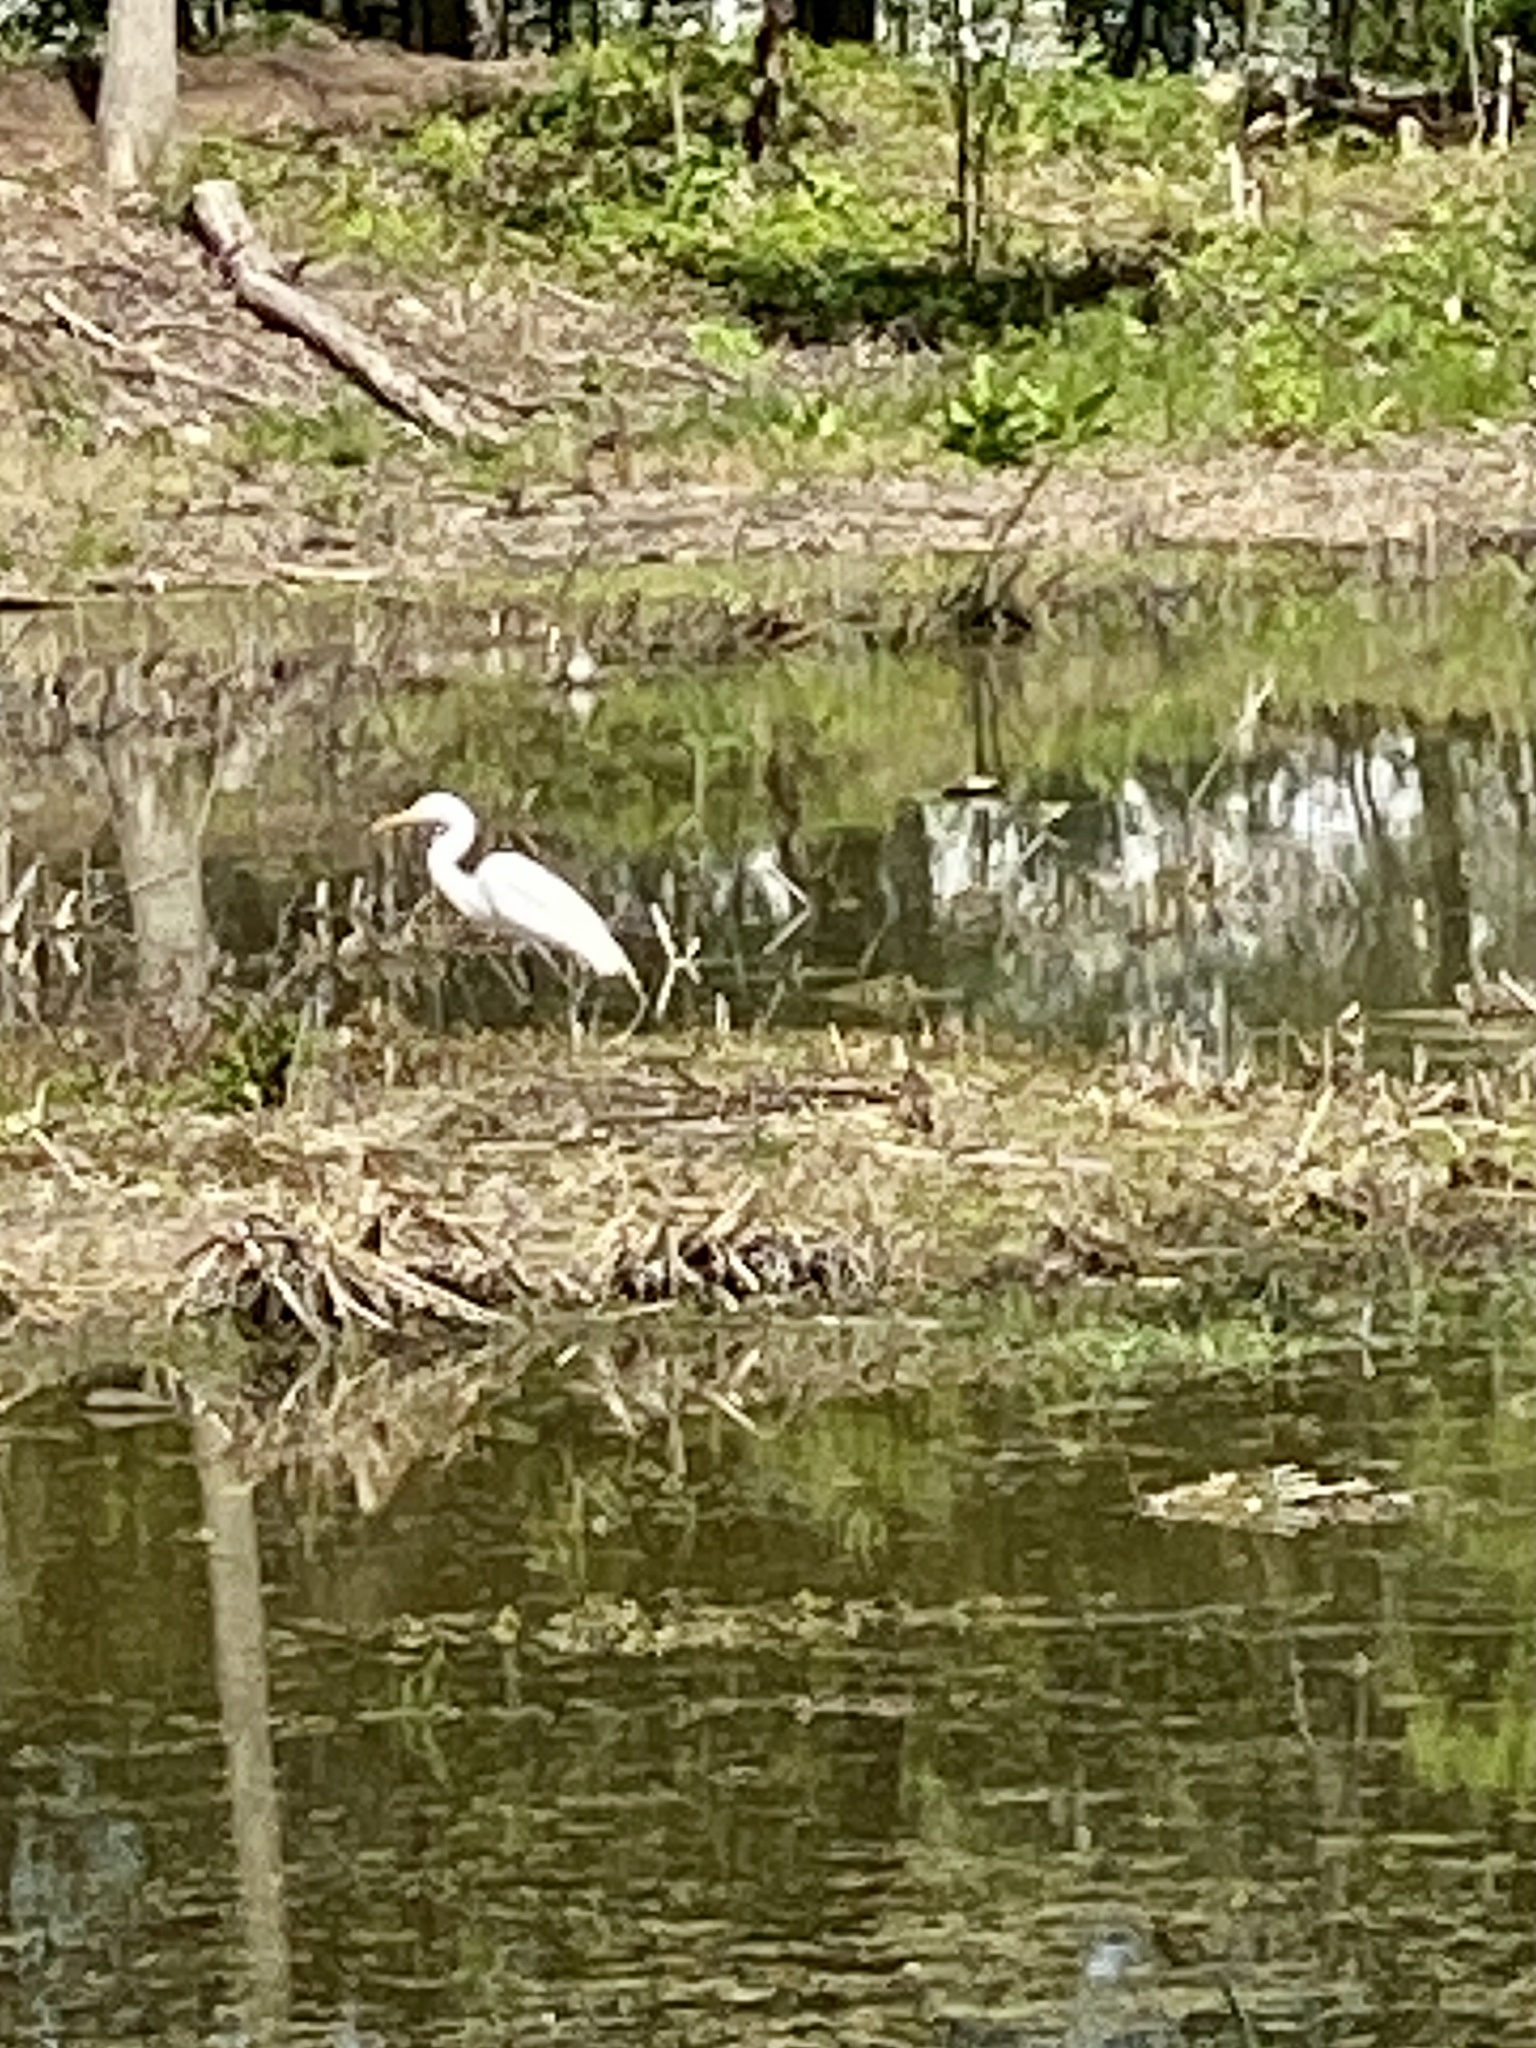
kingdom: Animalia
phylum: Chordata
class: Aves
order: Pelecaniformes
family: Ardeidae
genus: Ardea
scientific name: Ardea alba
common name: Great egret
